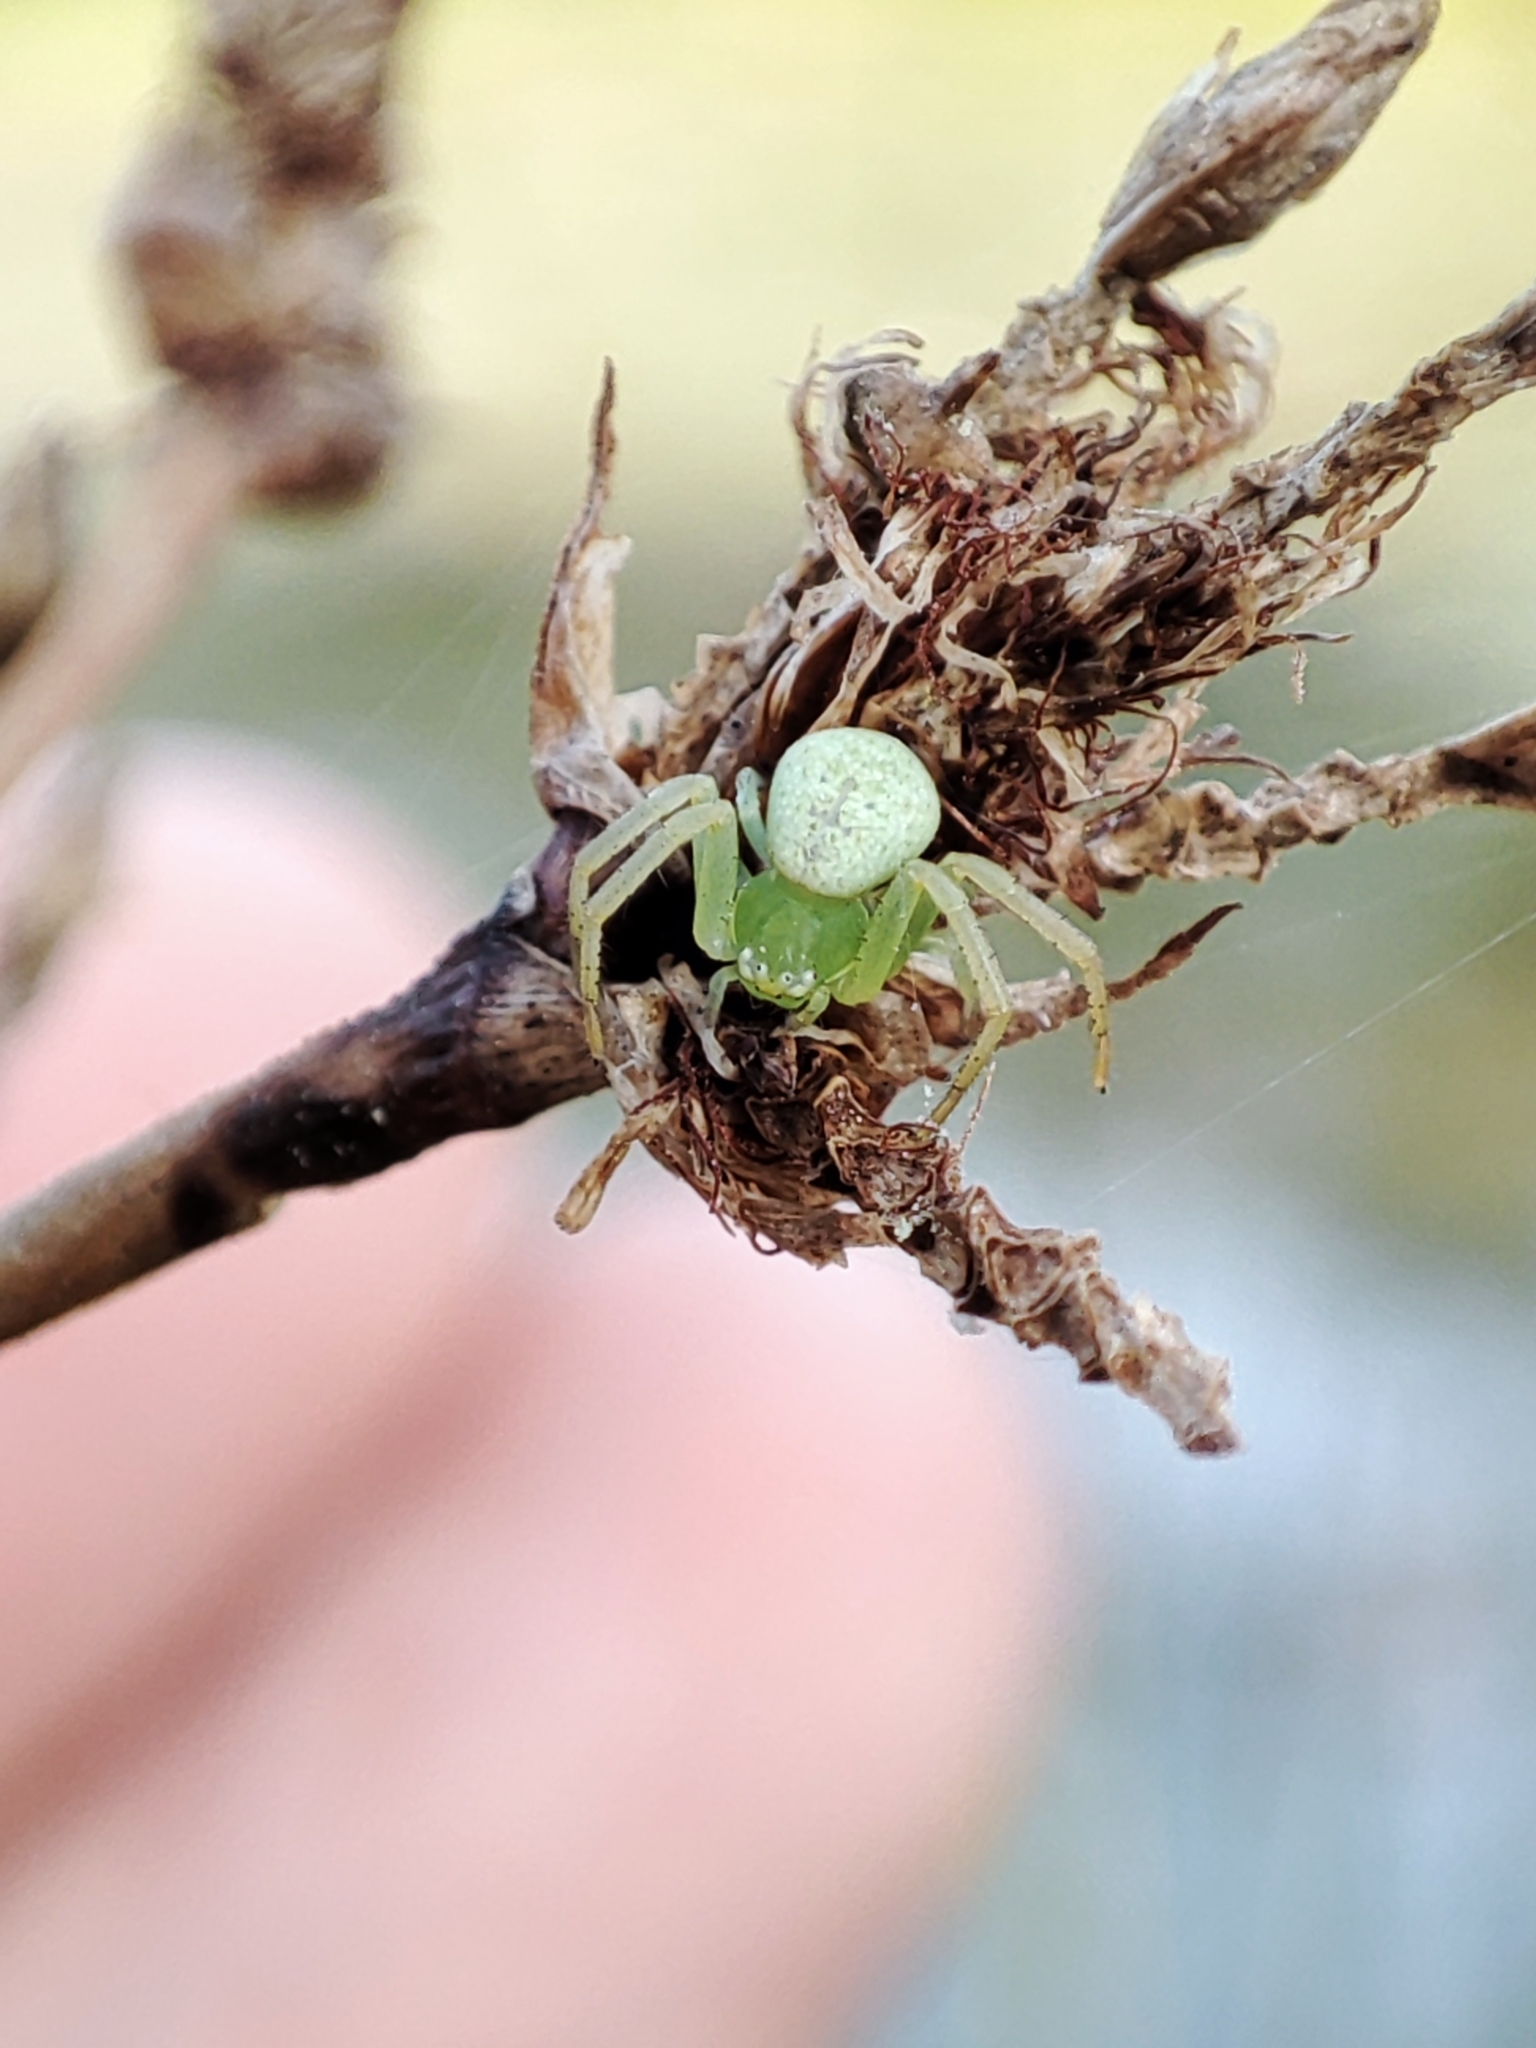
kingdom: Animalia
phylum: Arthropoda
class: Arachnida
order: Araneae
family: Thomisidae
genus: Ebrechtella
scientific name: Ebrechtella tricuspidata
